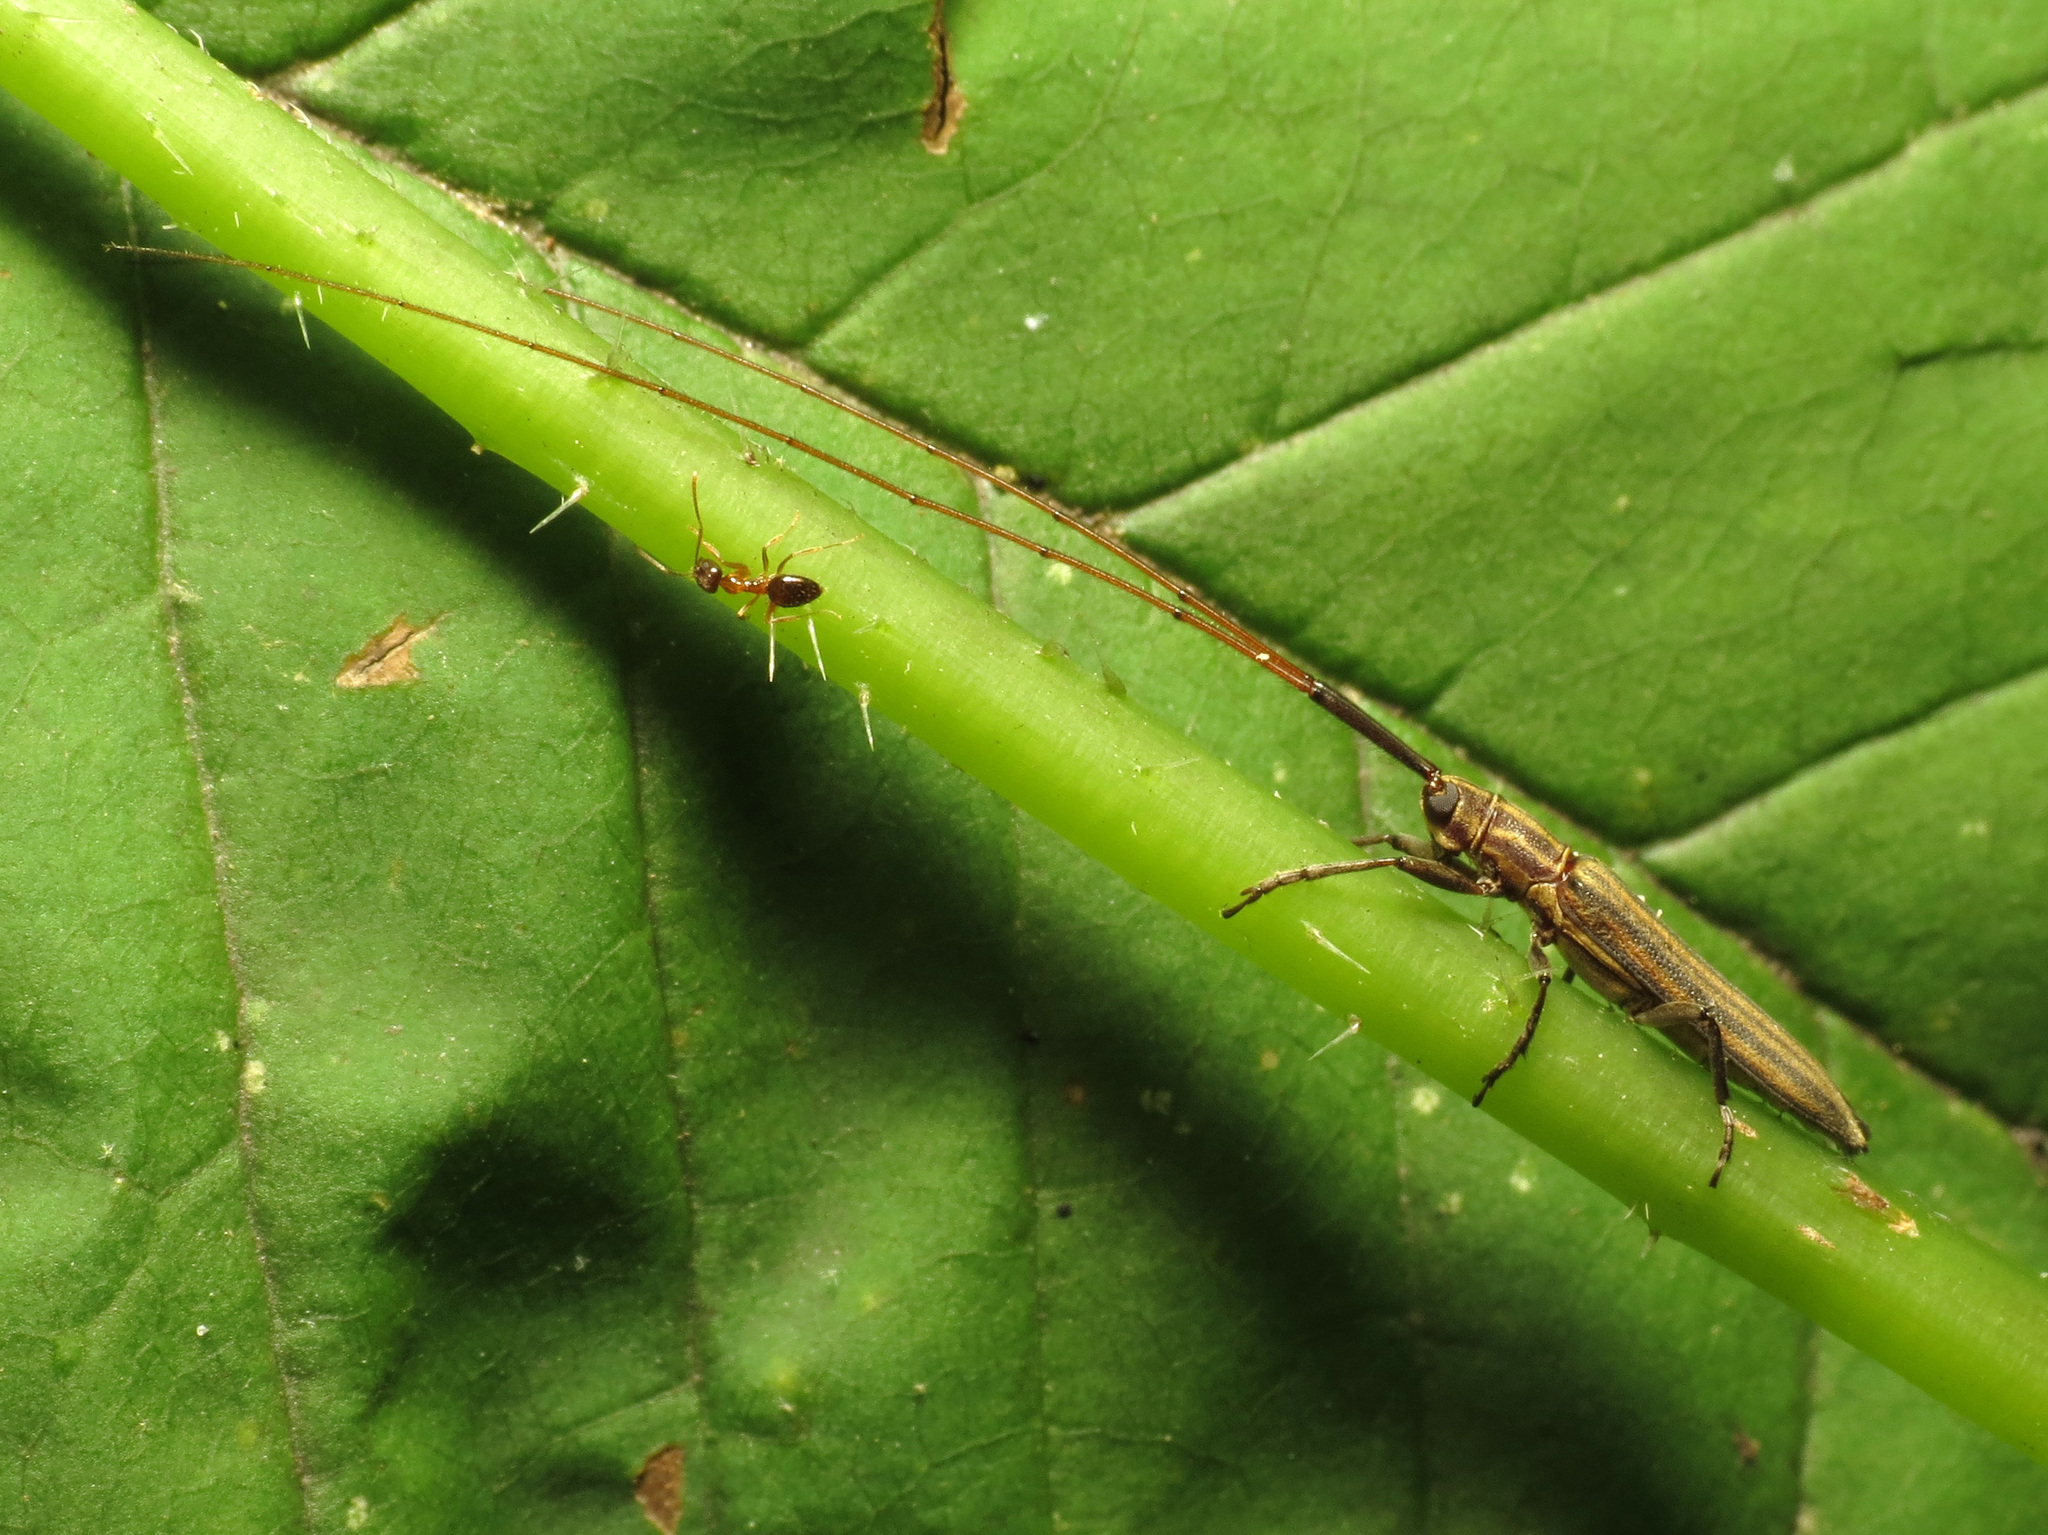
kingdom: Animalia
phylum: Arthropoda
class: Insecta
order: Coleoptera
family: Cerambycidae
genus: Hippopsis
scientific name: Hippopsis
